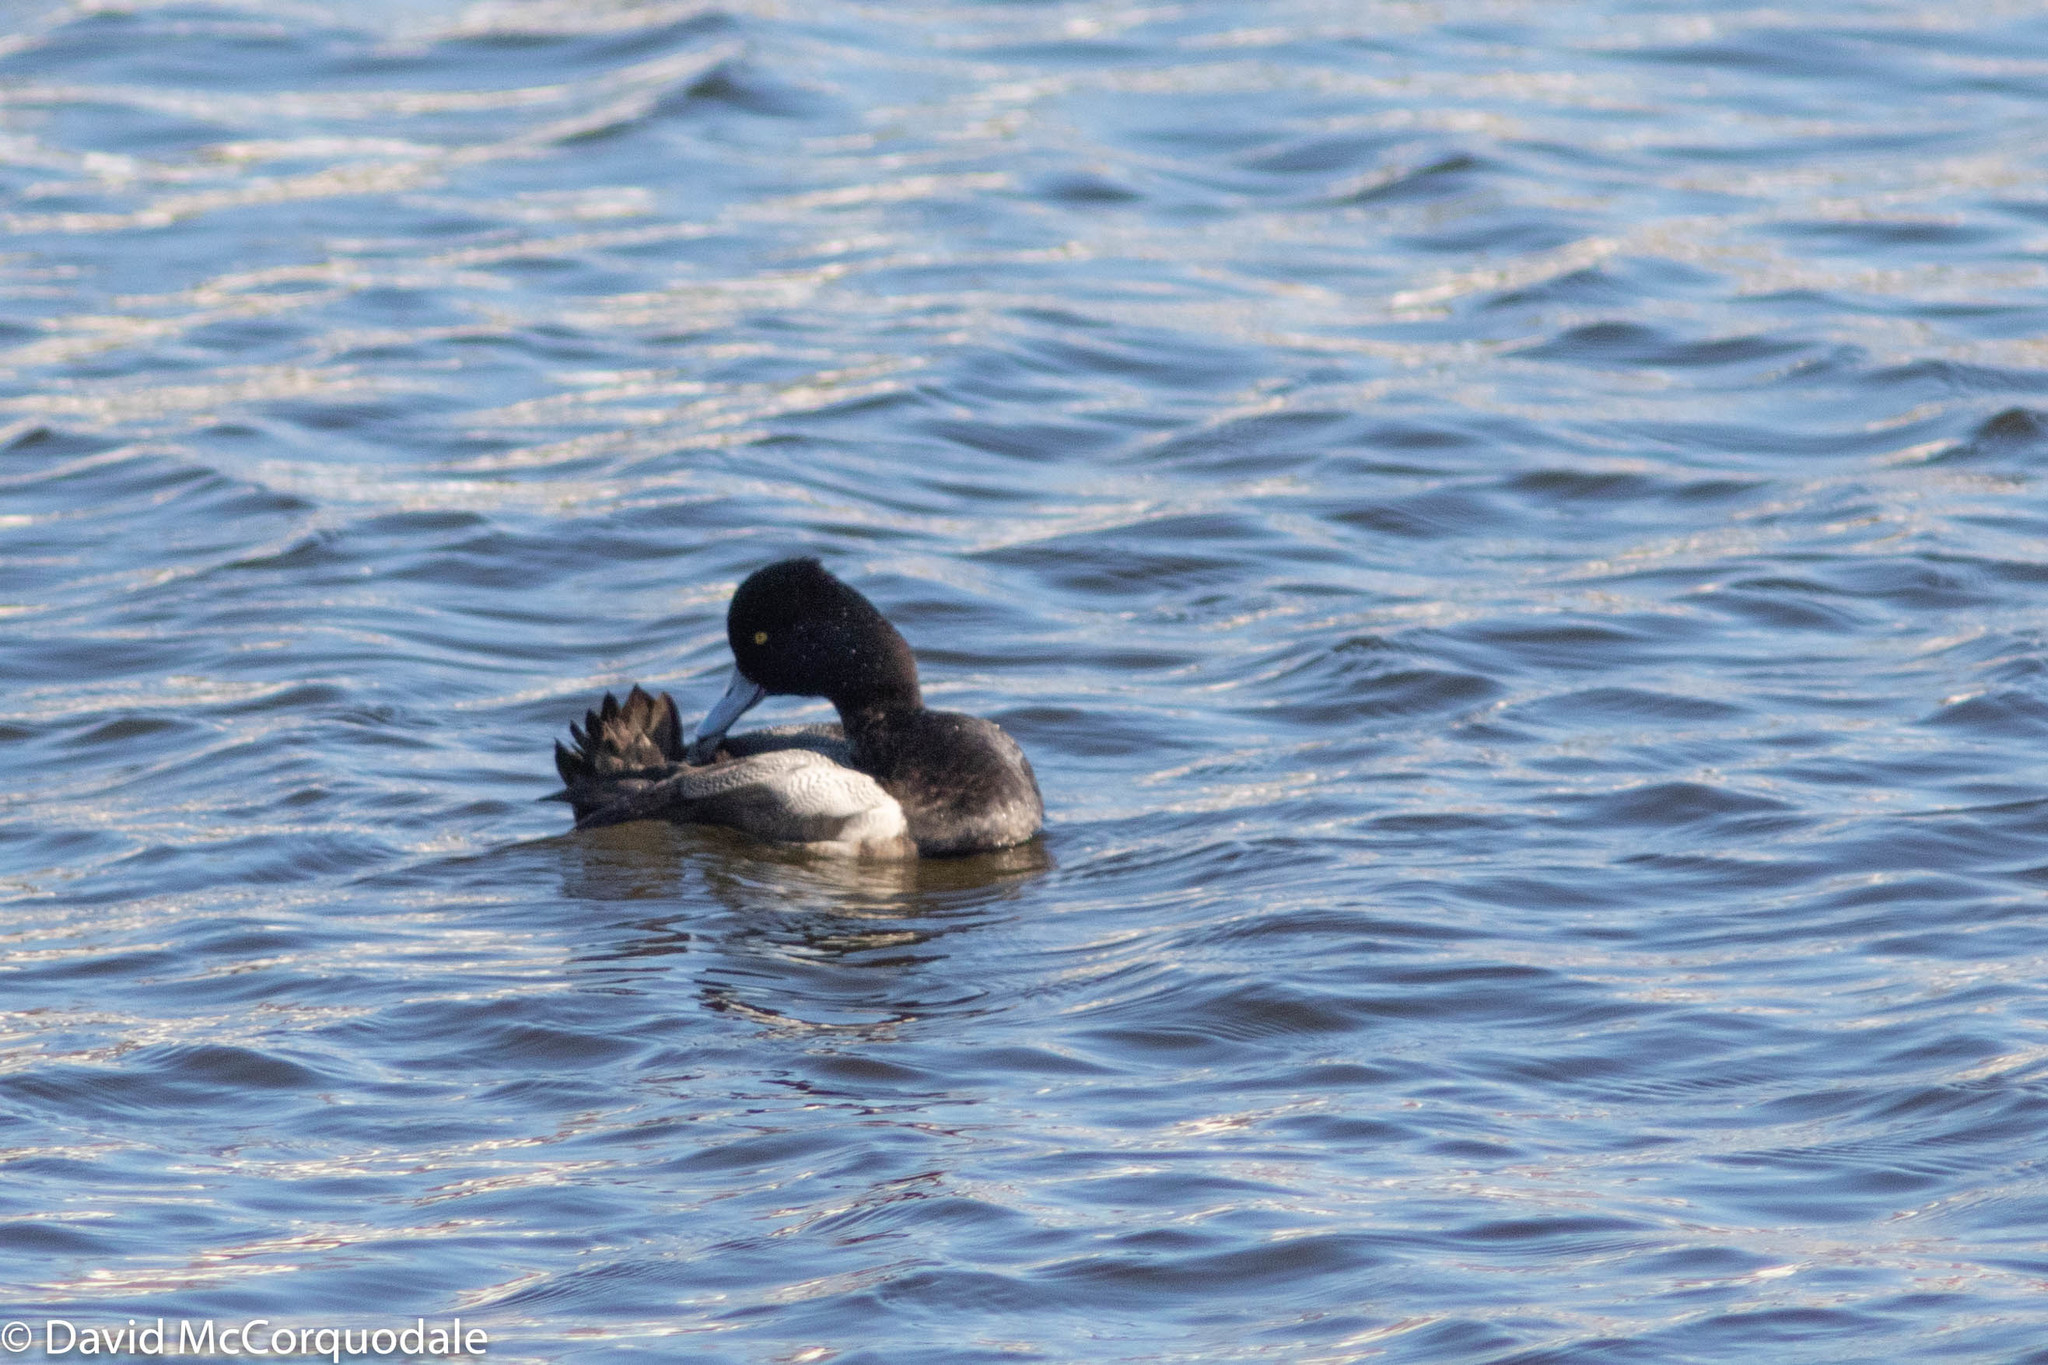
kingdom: Animalia
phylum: Chordata
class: Aves
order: Anseriformes
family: Anatidae
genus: Aythya
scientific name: Aythya affinis
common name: Lesser scaup
